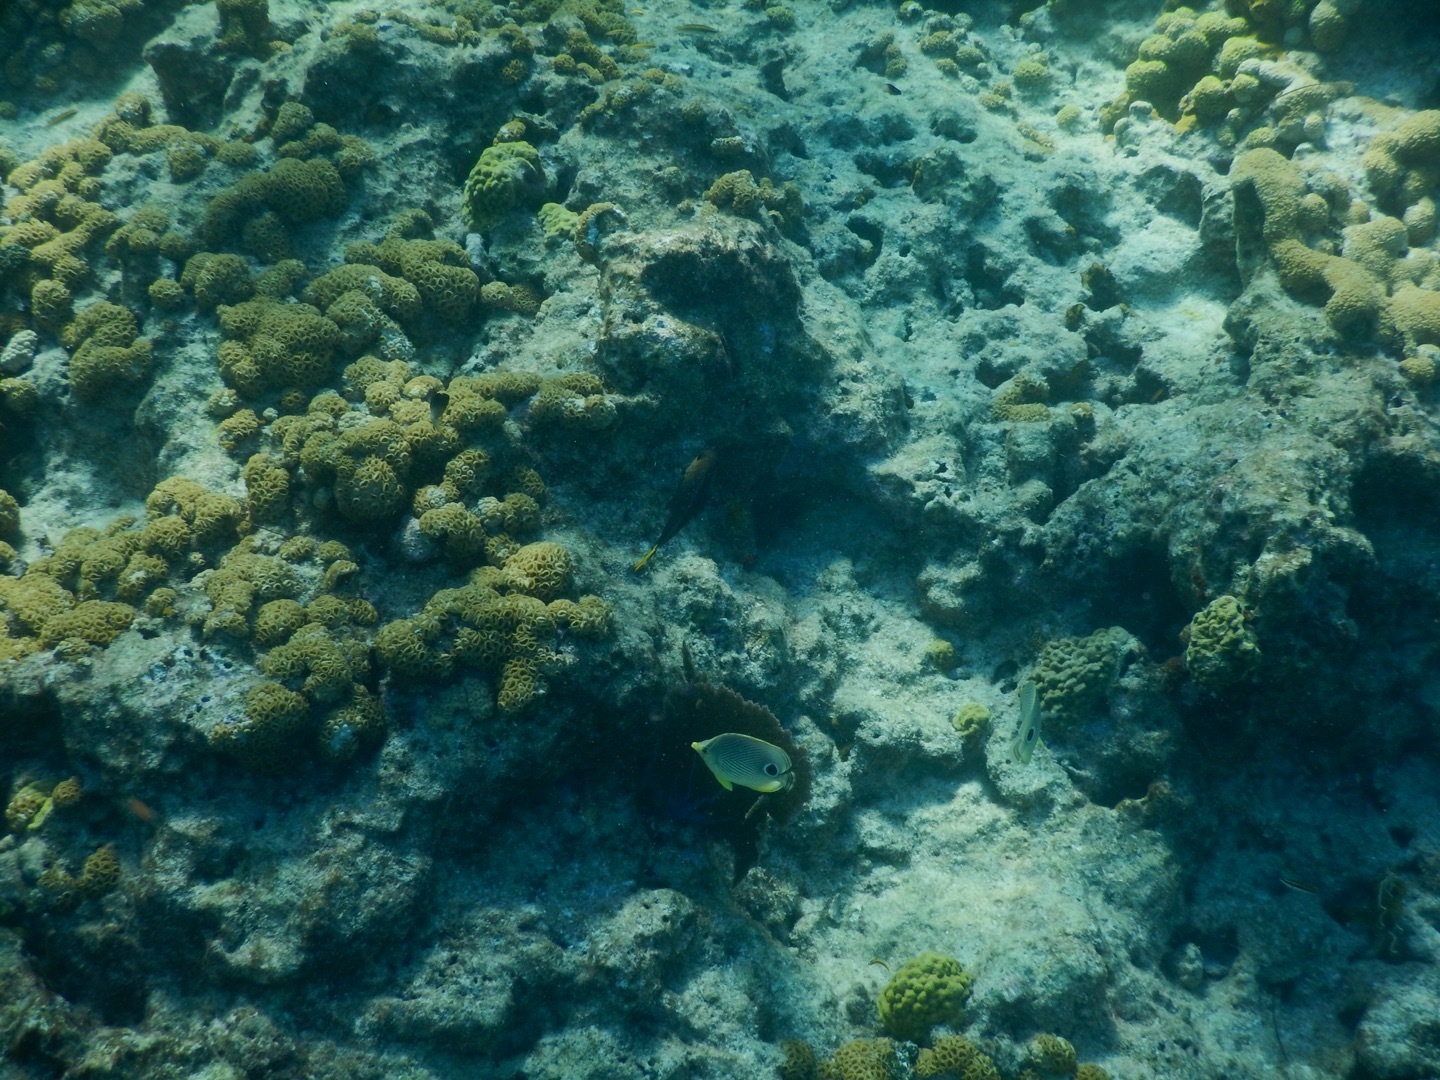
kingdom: Animalia
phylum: Chordata
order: Perciformes
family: Chaetodontidae
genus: Chaetodon
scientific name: Chaetodon capistratus
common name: Kete
